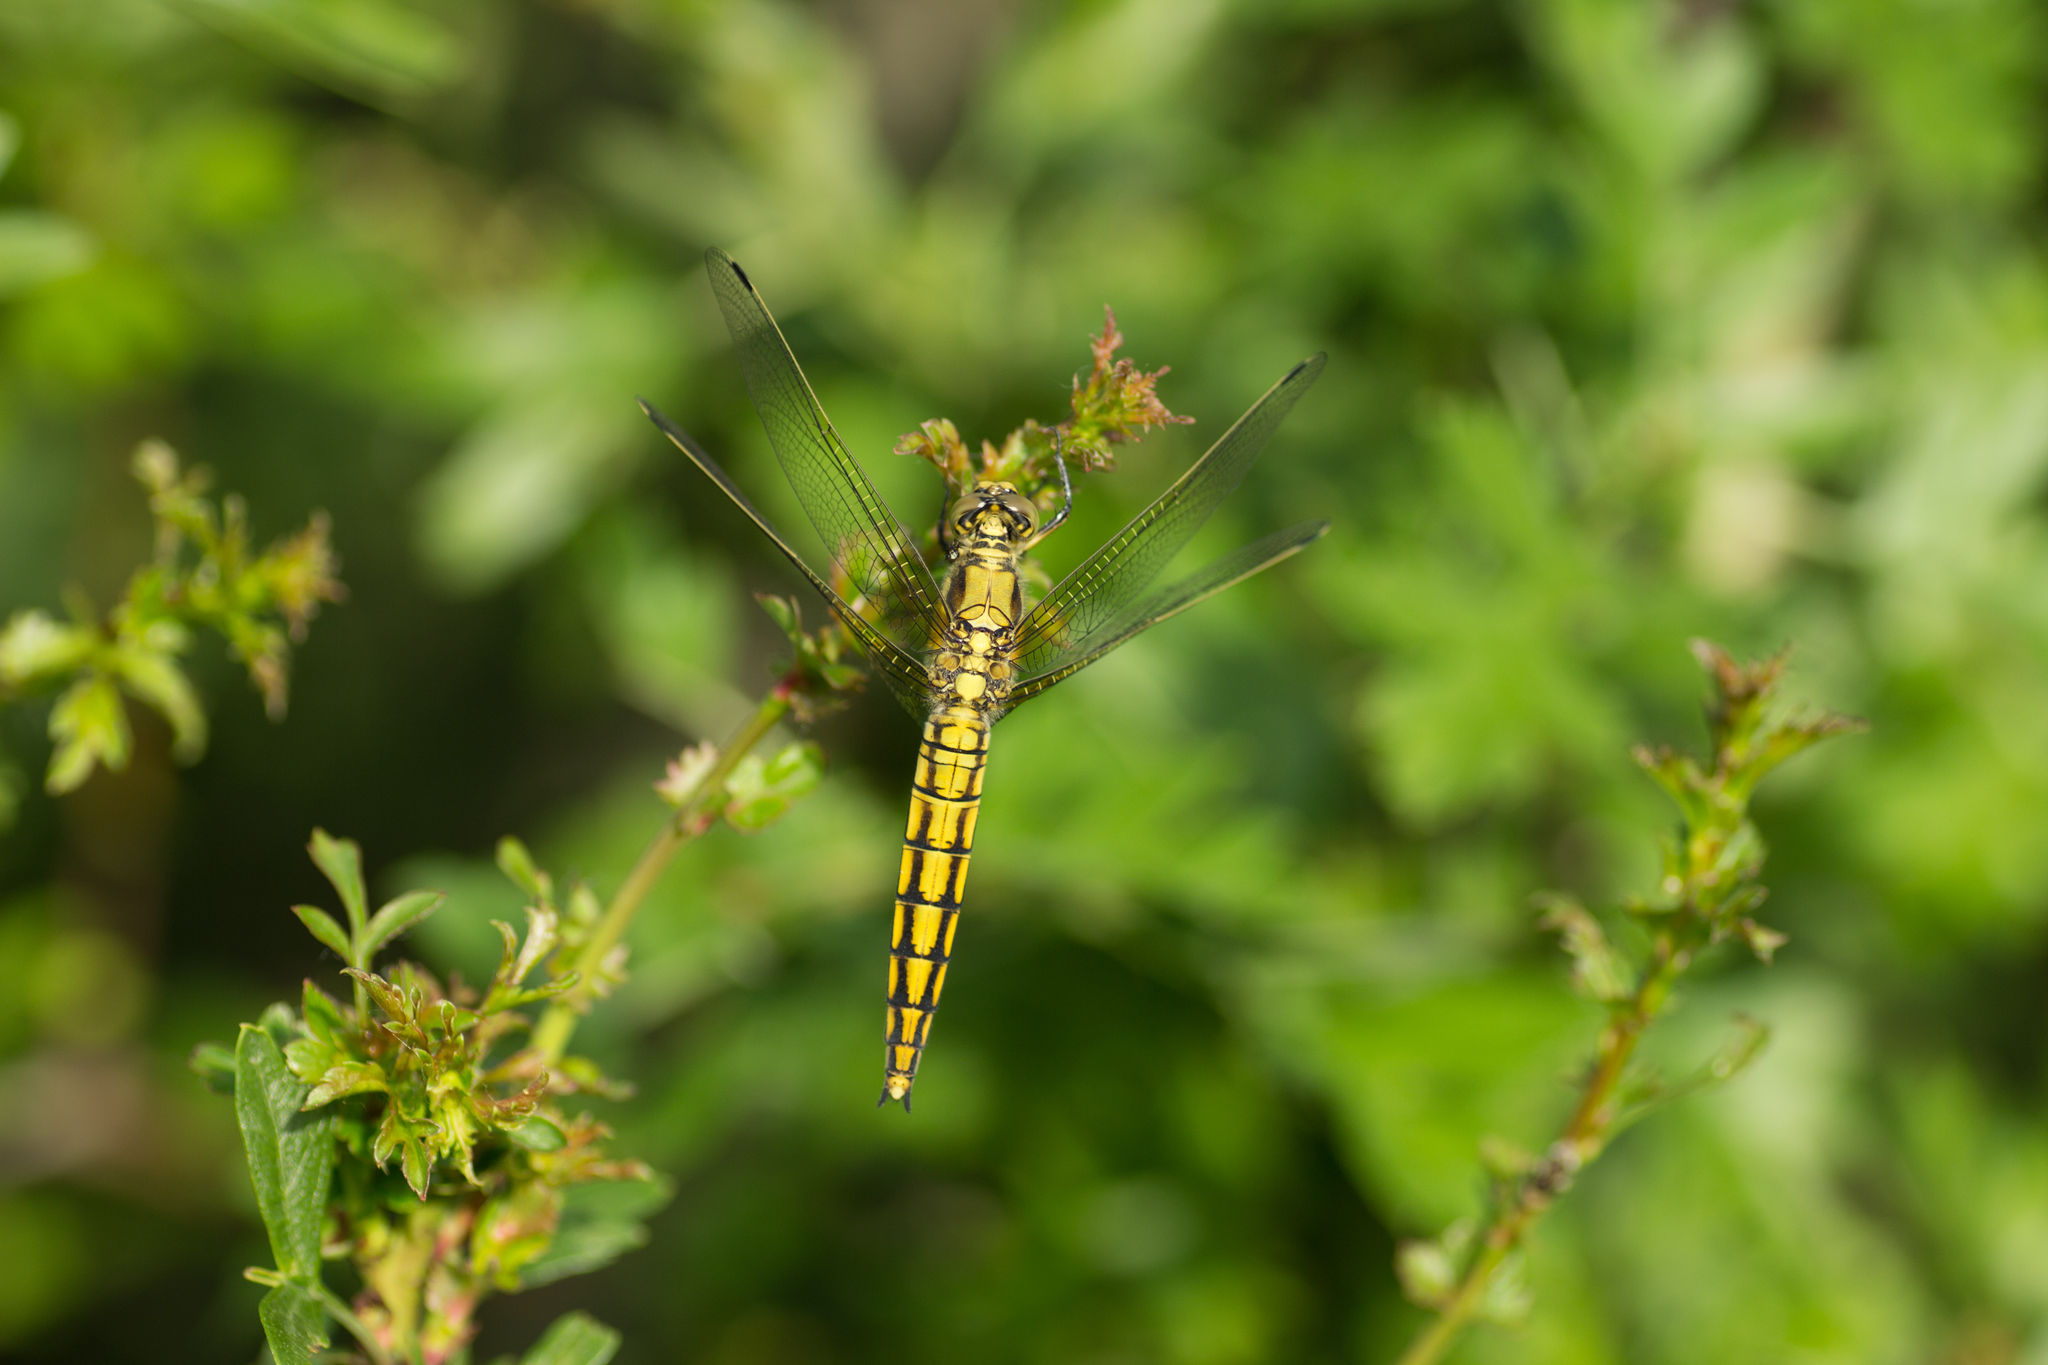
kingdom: Animalia
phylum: Arthropoda
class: Insecta
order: Odonata
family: Libellulidae
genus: Orthetrum
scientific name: Orthetrum cancellatum
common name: Black-tailed skimmer
